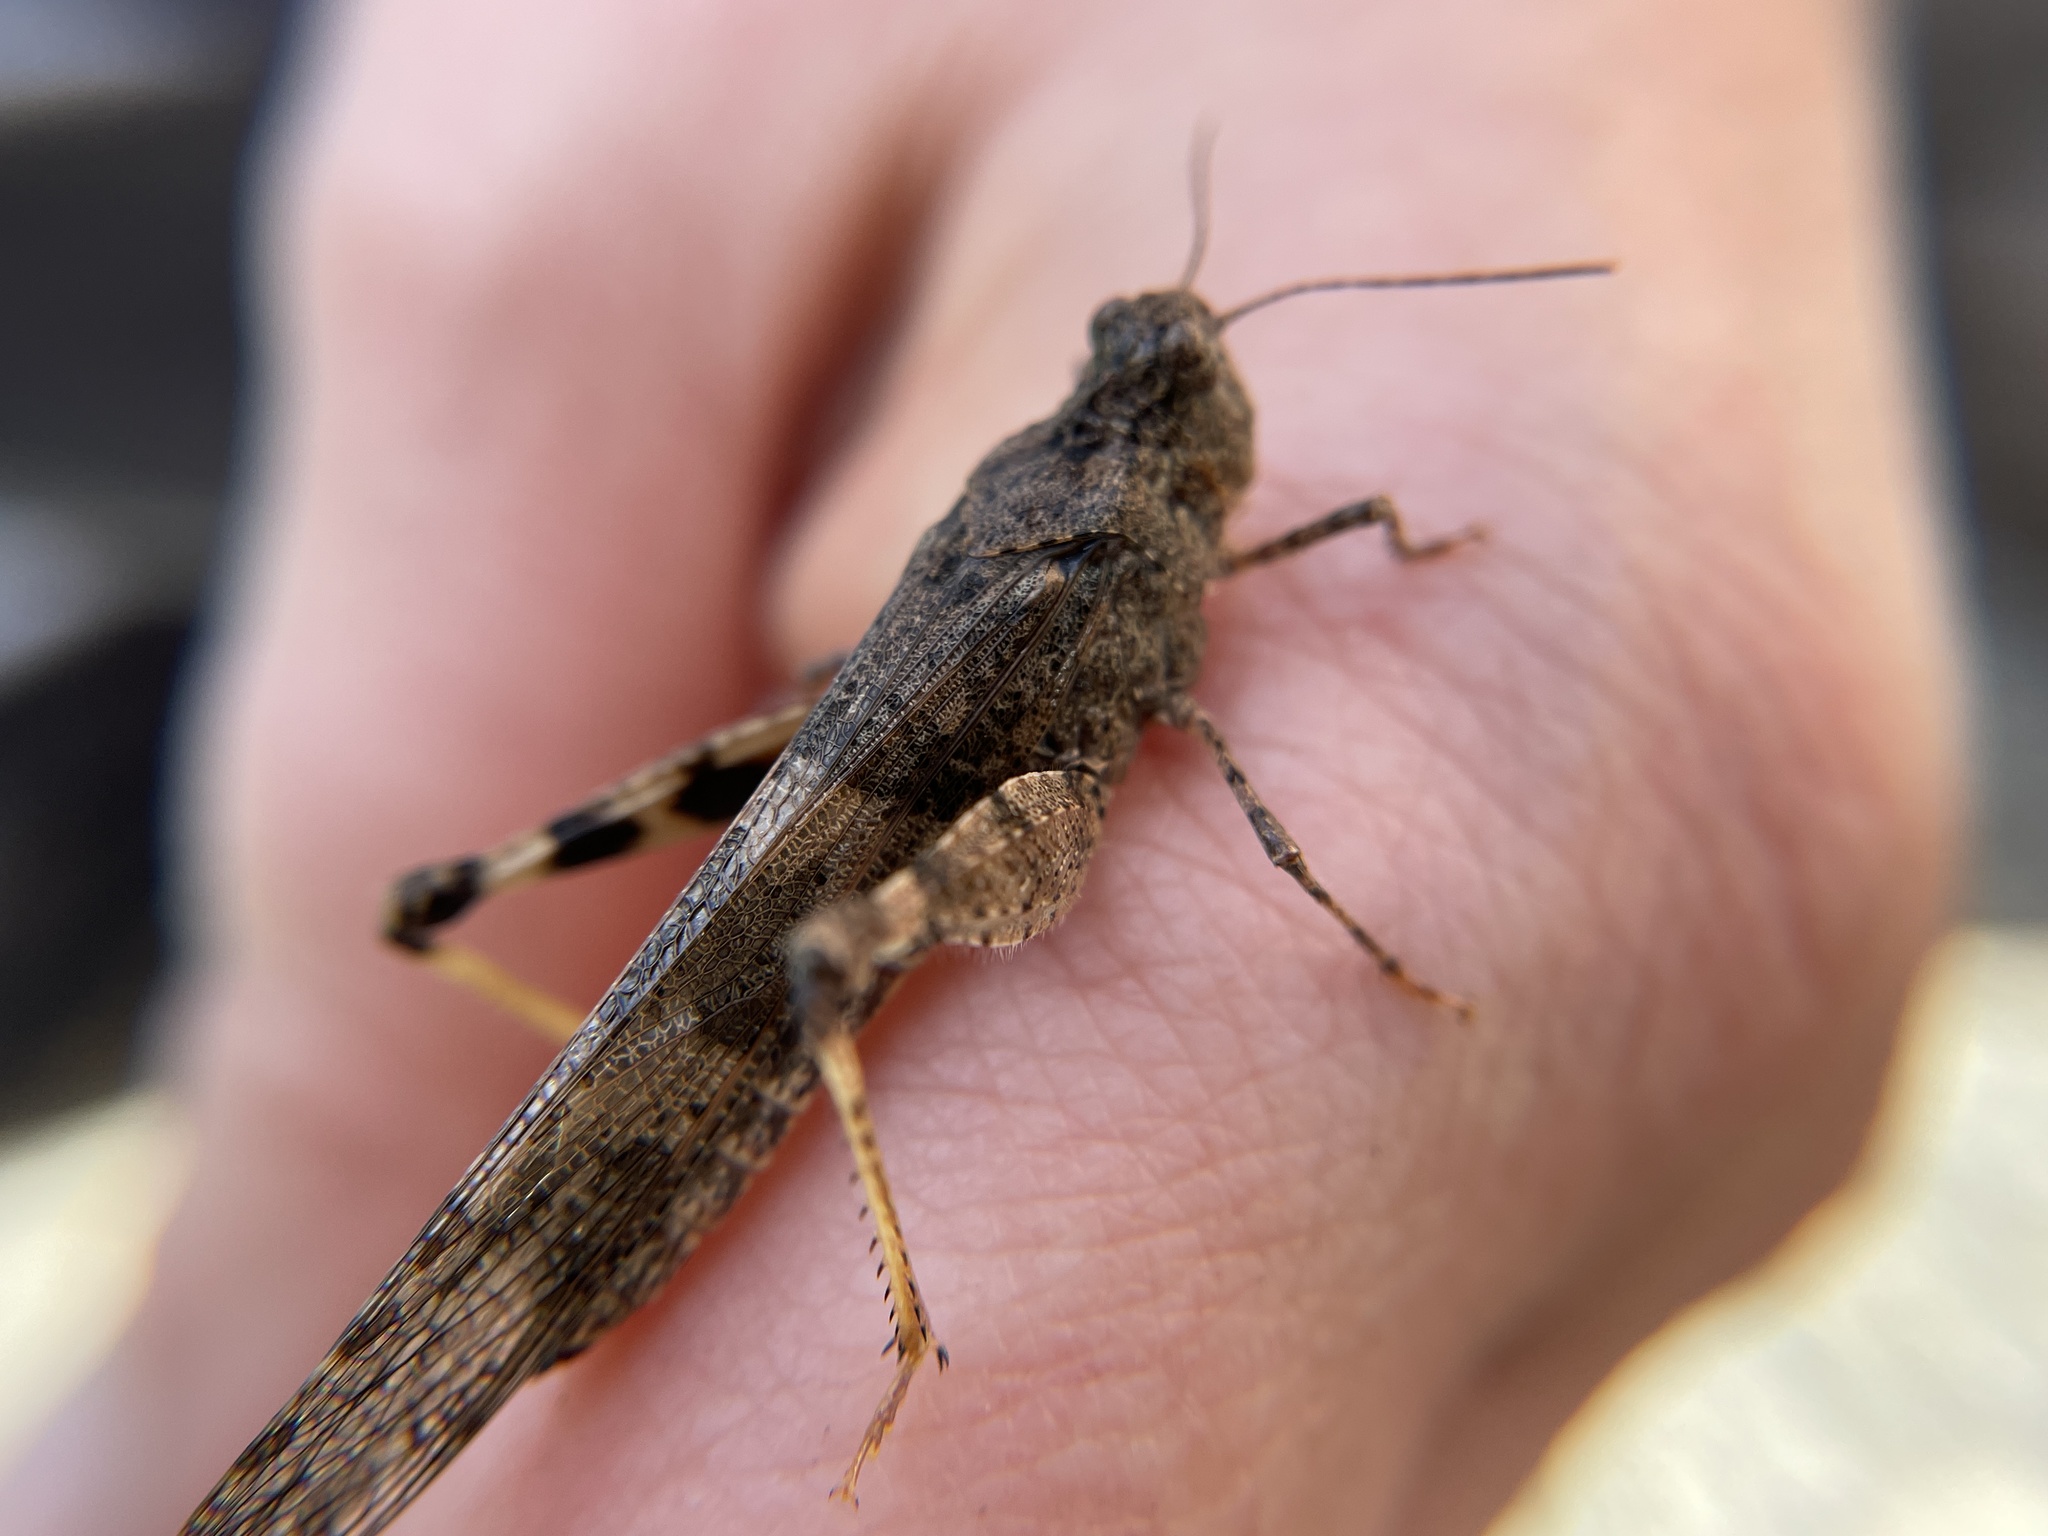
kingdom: Animalia
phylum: Arthropoda
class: Insecta
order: Orthoptera
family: Acrididae
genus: Trimerotropis
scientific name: Trimerotropis pallidipennis
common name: Pallid-winged grasshopper
